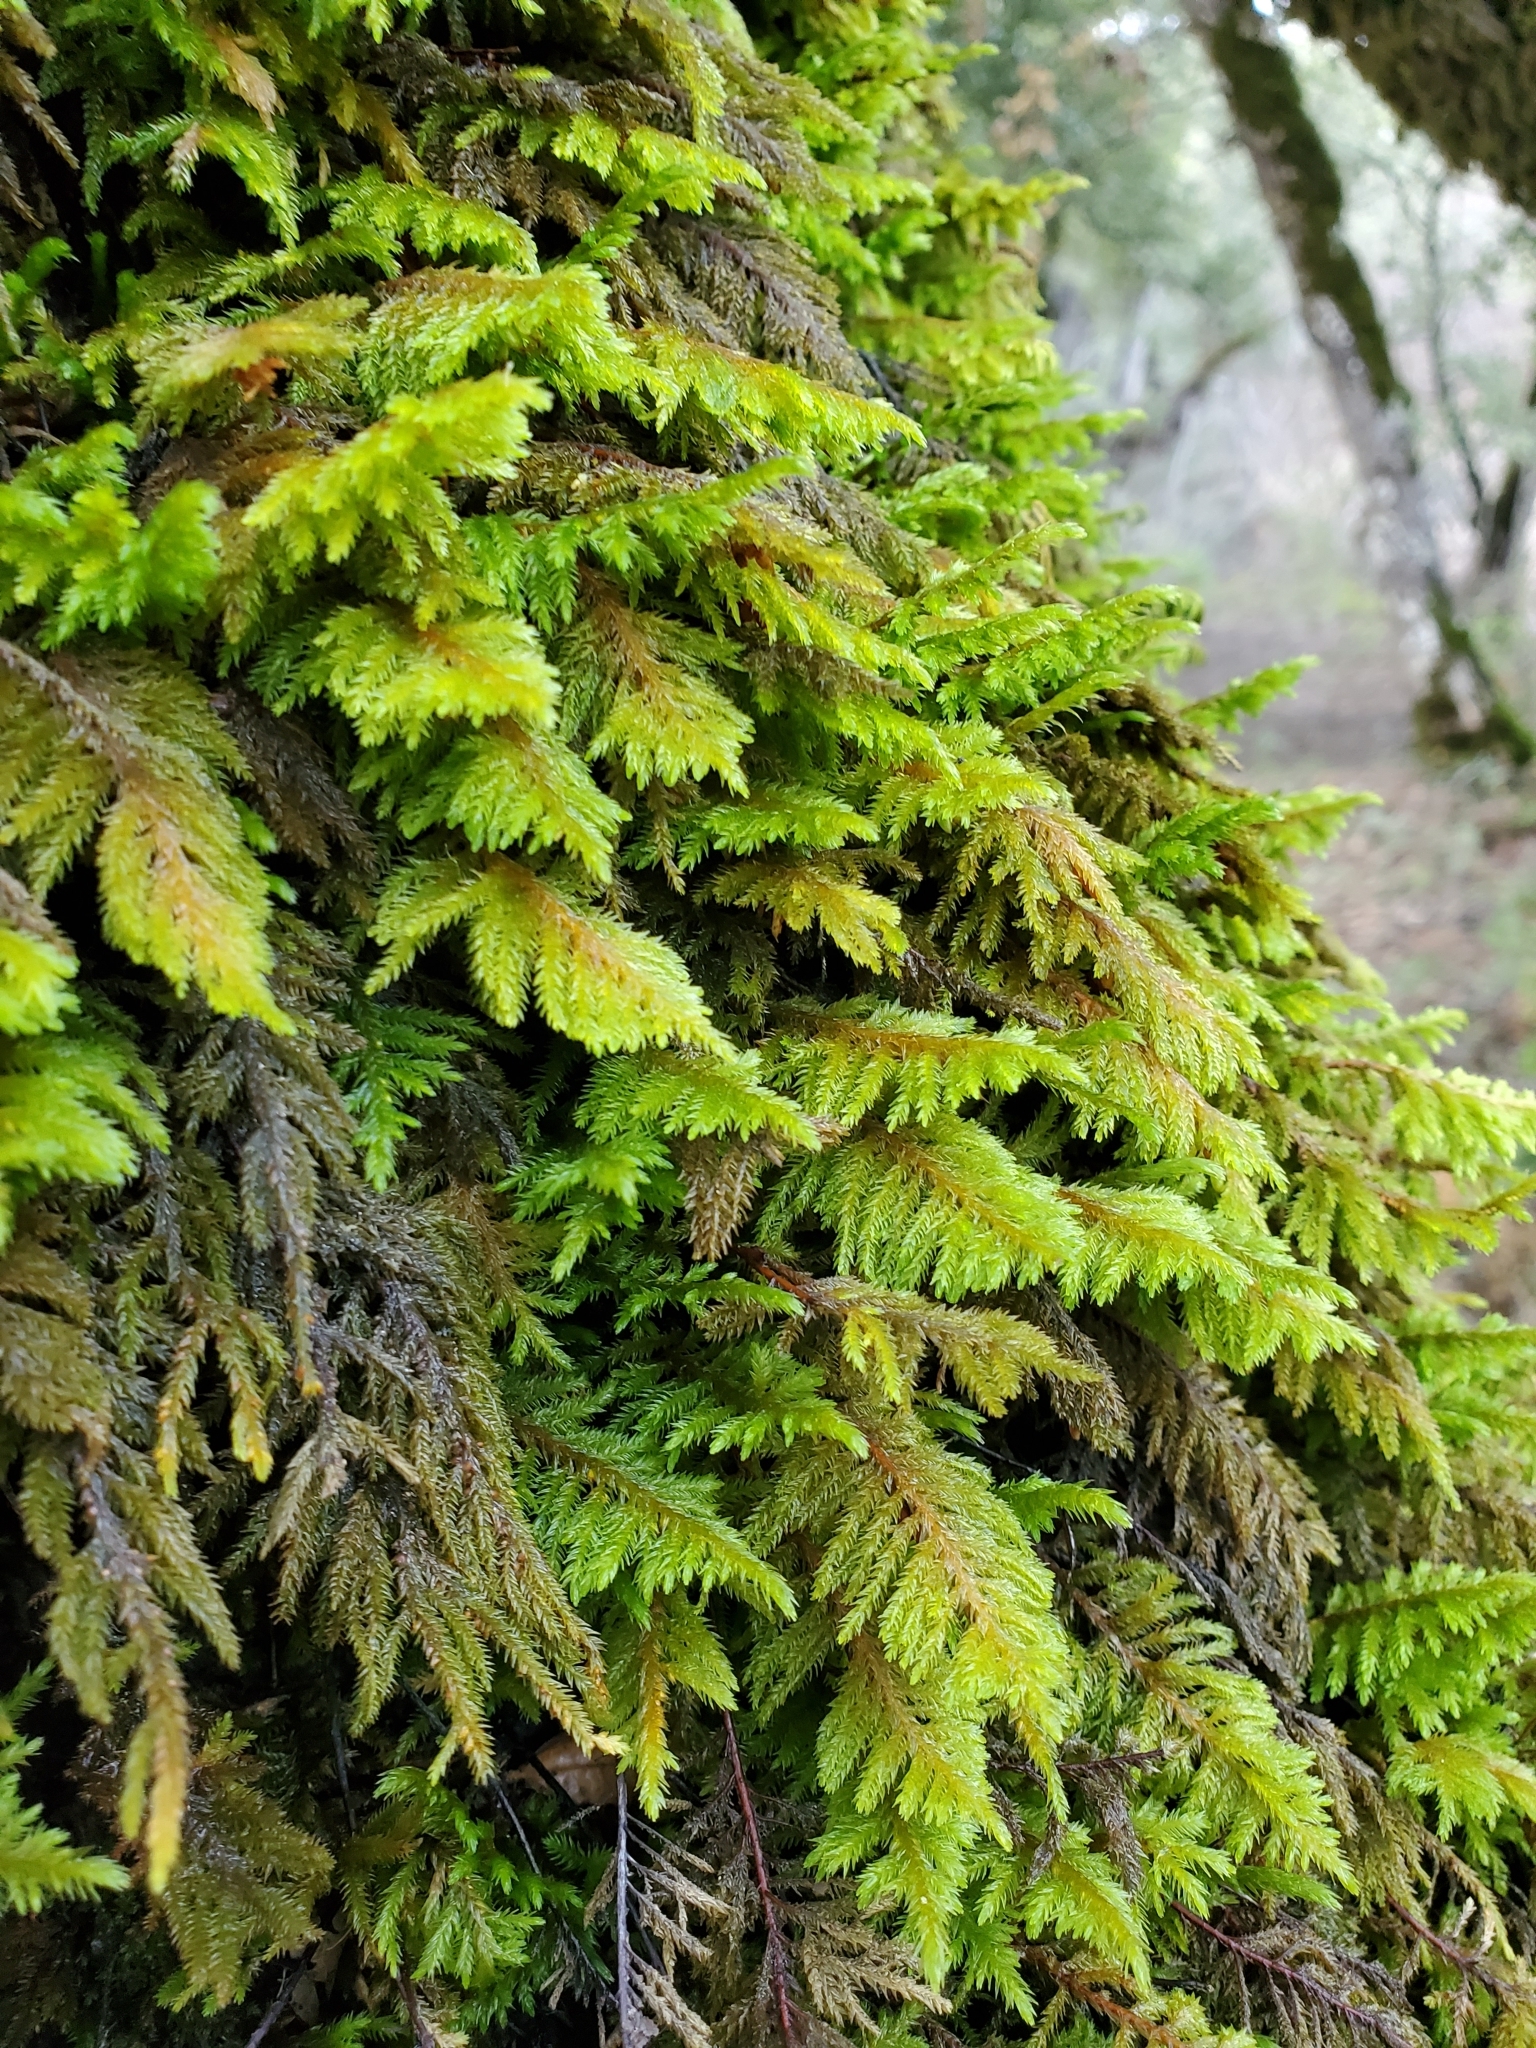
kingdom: Plantae
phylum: Bryophyta
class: Bryopsida
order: Hypnales
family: Cryphaeaceae
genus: Dendroalsia
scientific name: Dendroalsia abietina
